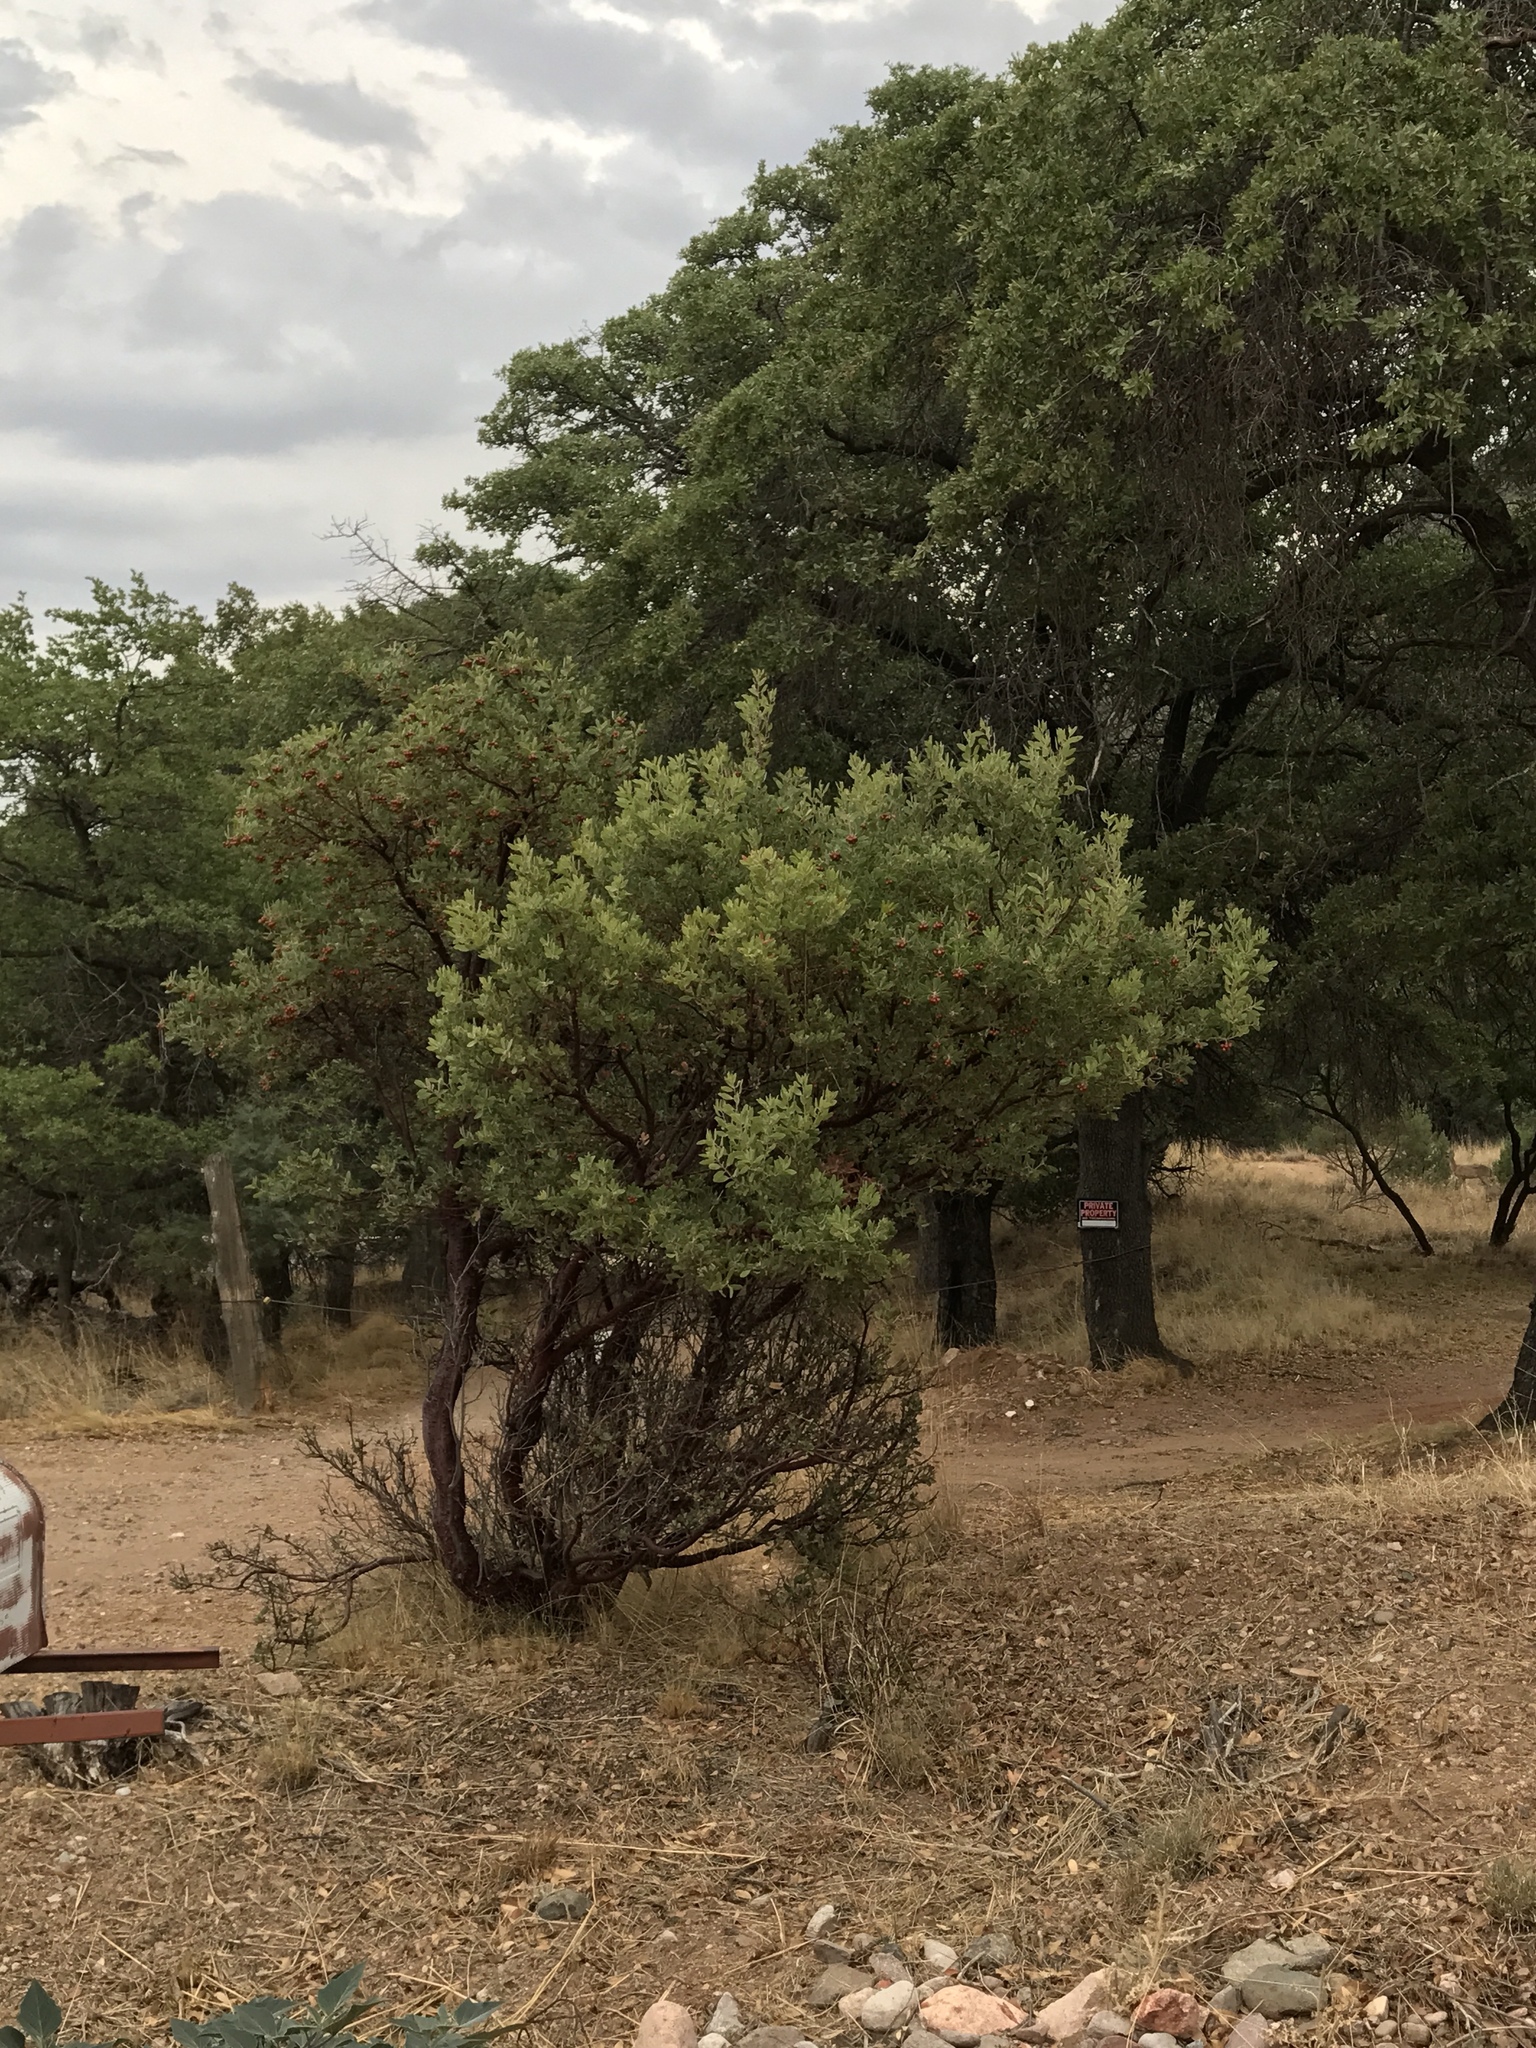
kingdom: Plantae
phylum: Tracheophyta
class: Magnoliopsida
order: Ericales
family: Ericaceae
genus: Arctostaphylos
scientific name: Arctostaphylos pungens
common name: Mexican manzanita
